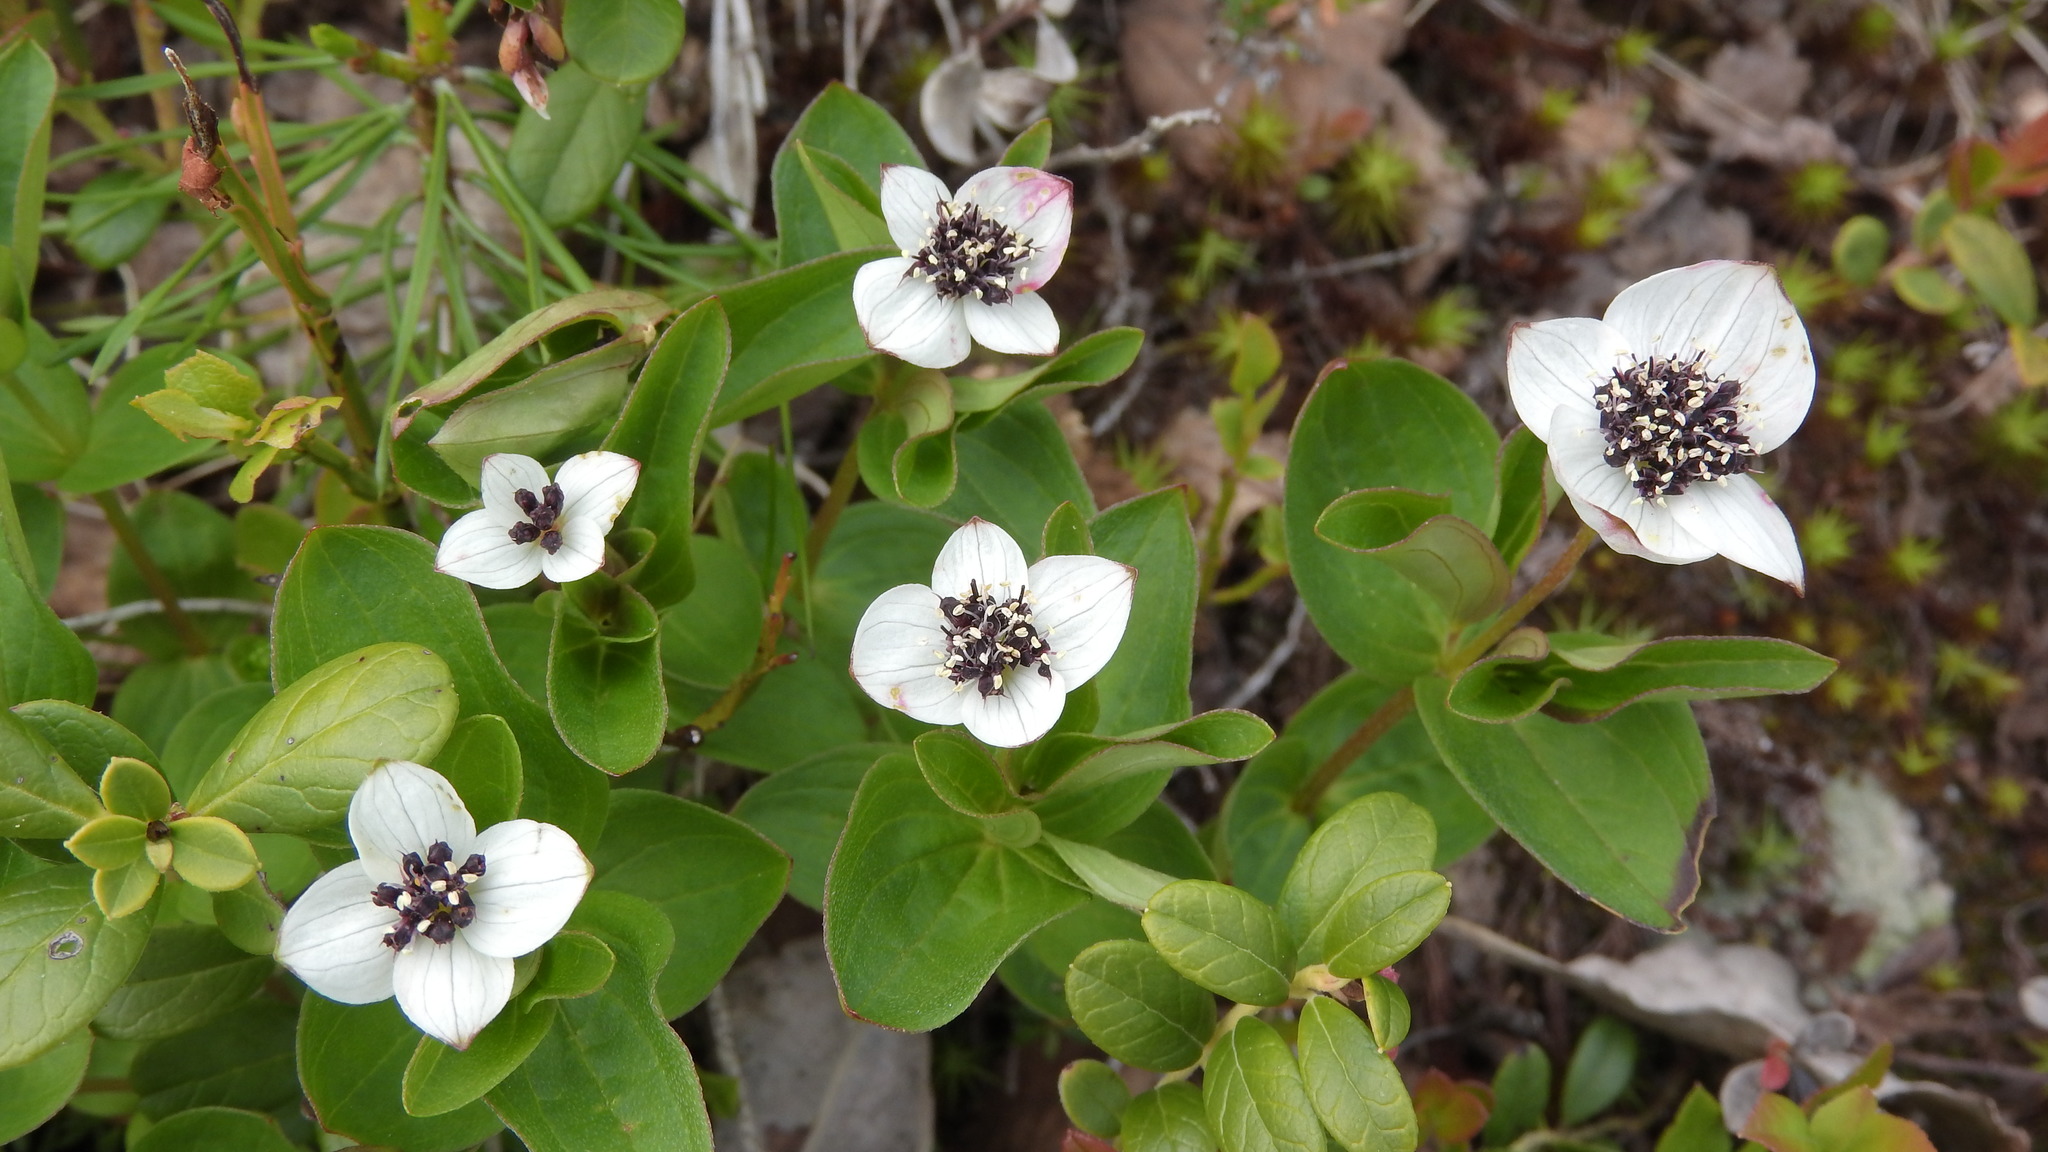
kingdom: Plantae
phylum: Tracheophyta
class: Magnoliopsida
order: Cornales
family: Cornaceae
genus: Cornus
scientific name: Cornus suecica
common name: Dwarf cornel
